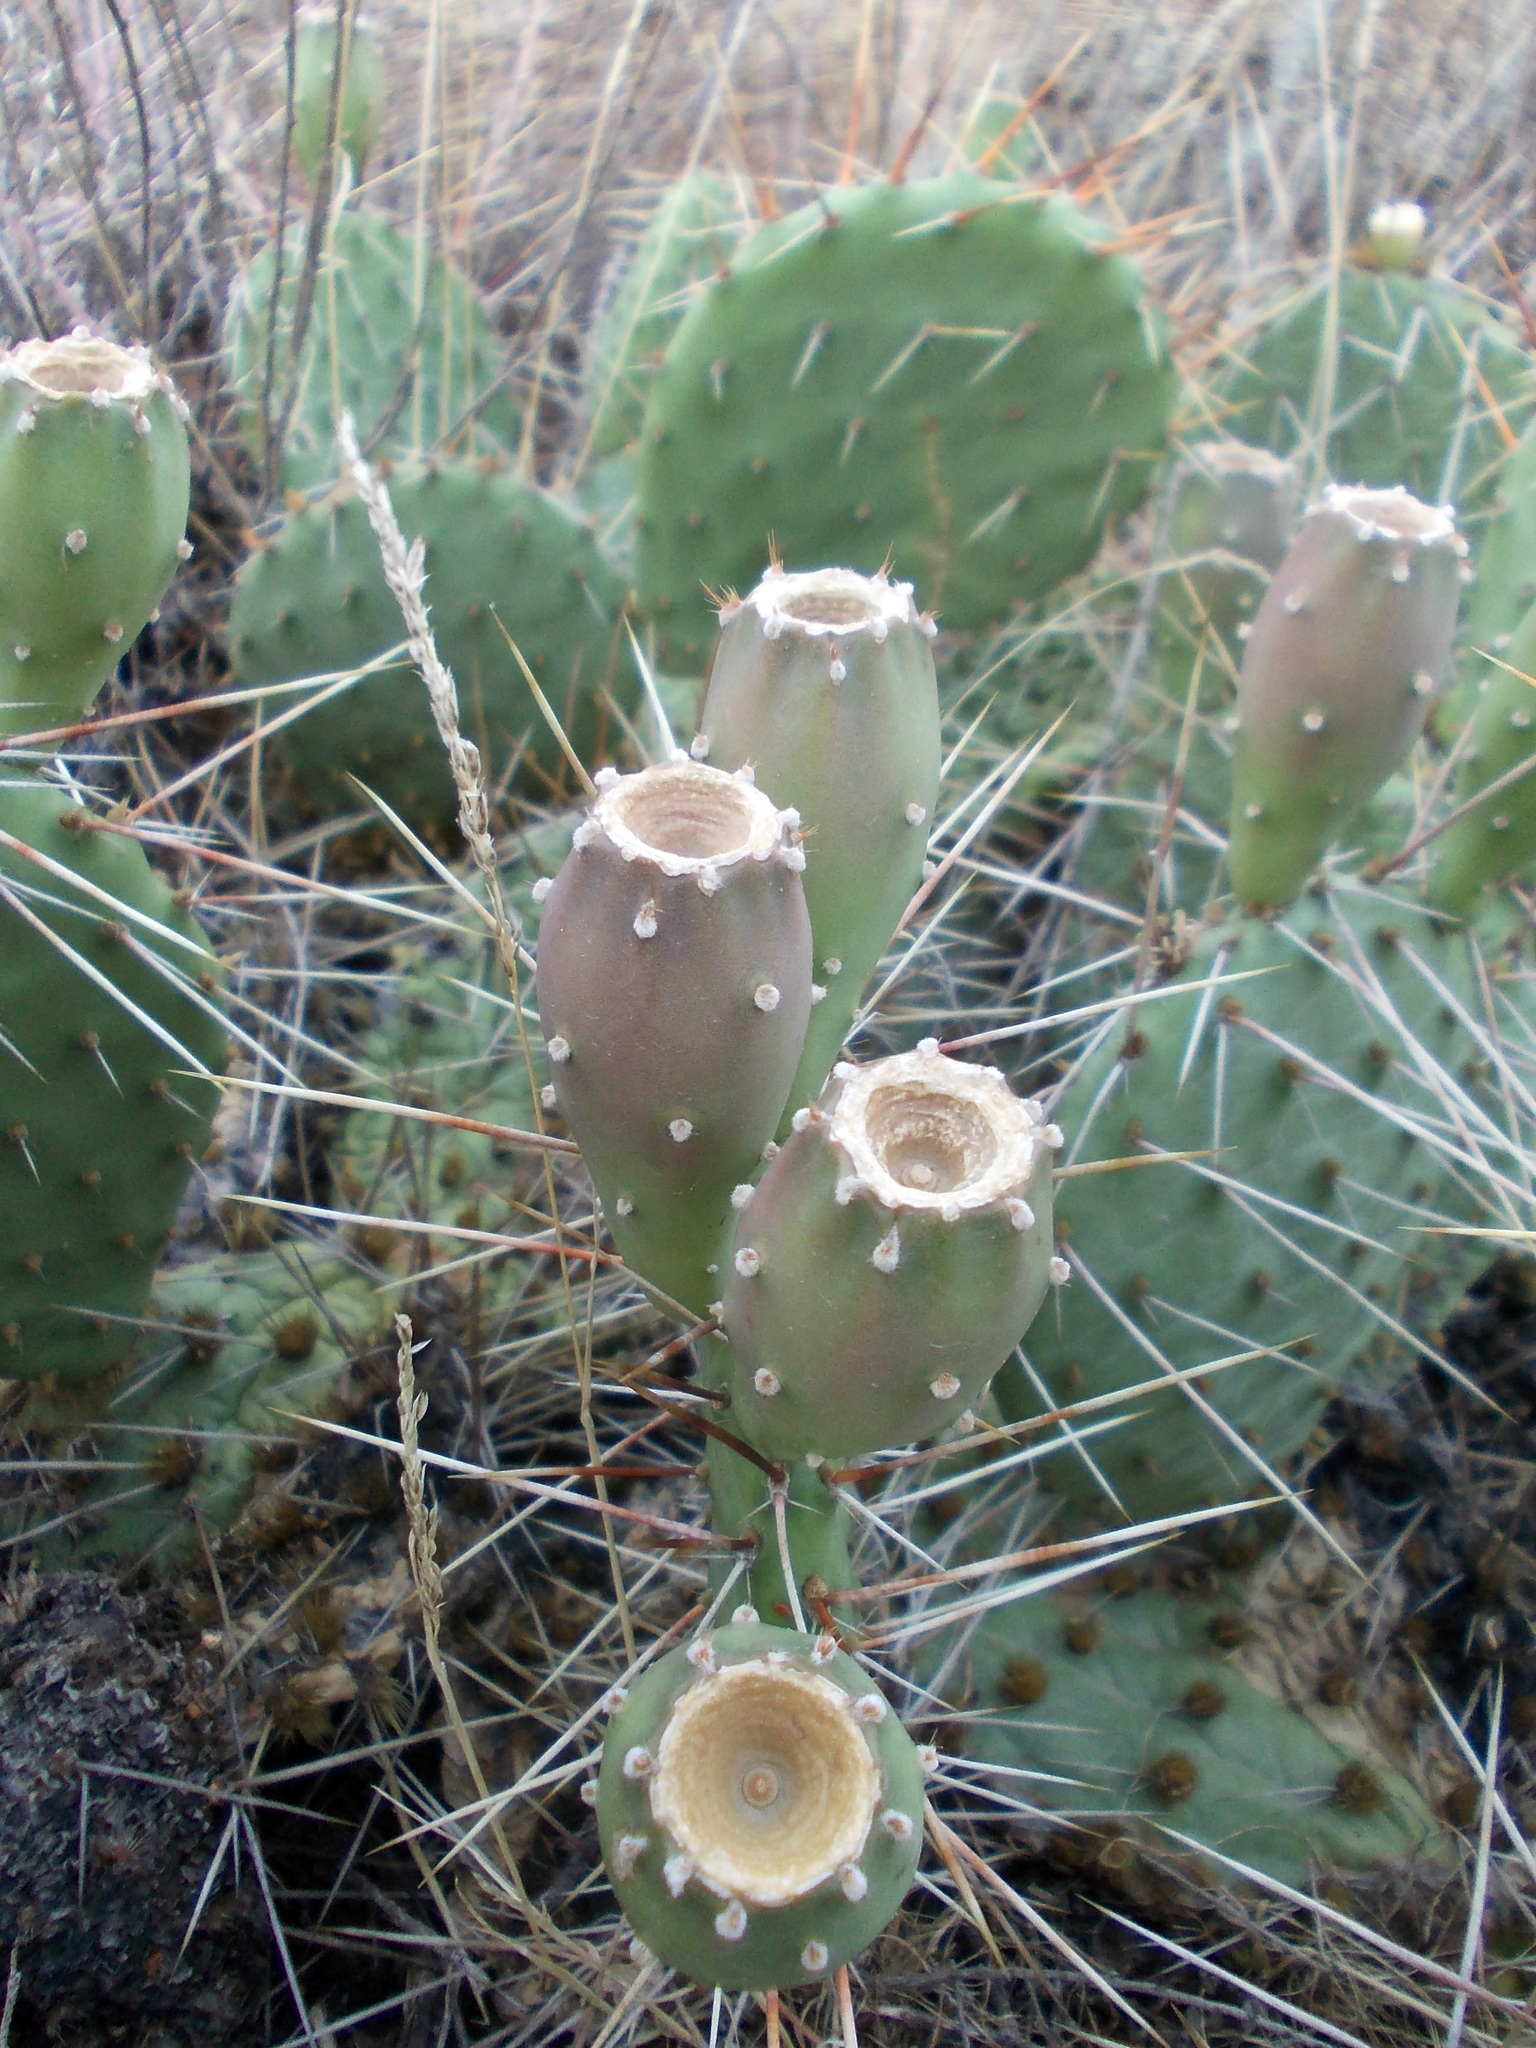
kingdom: Plantae
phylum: Tracheophyta
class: Magnoliopsida
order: Caryophyllales
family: Cactaceae
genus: Opuntia
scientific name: Opuntia cymochila
